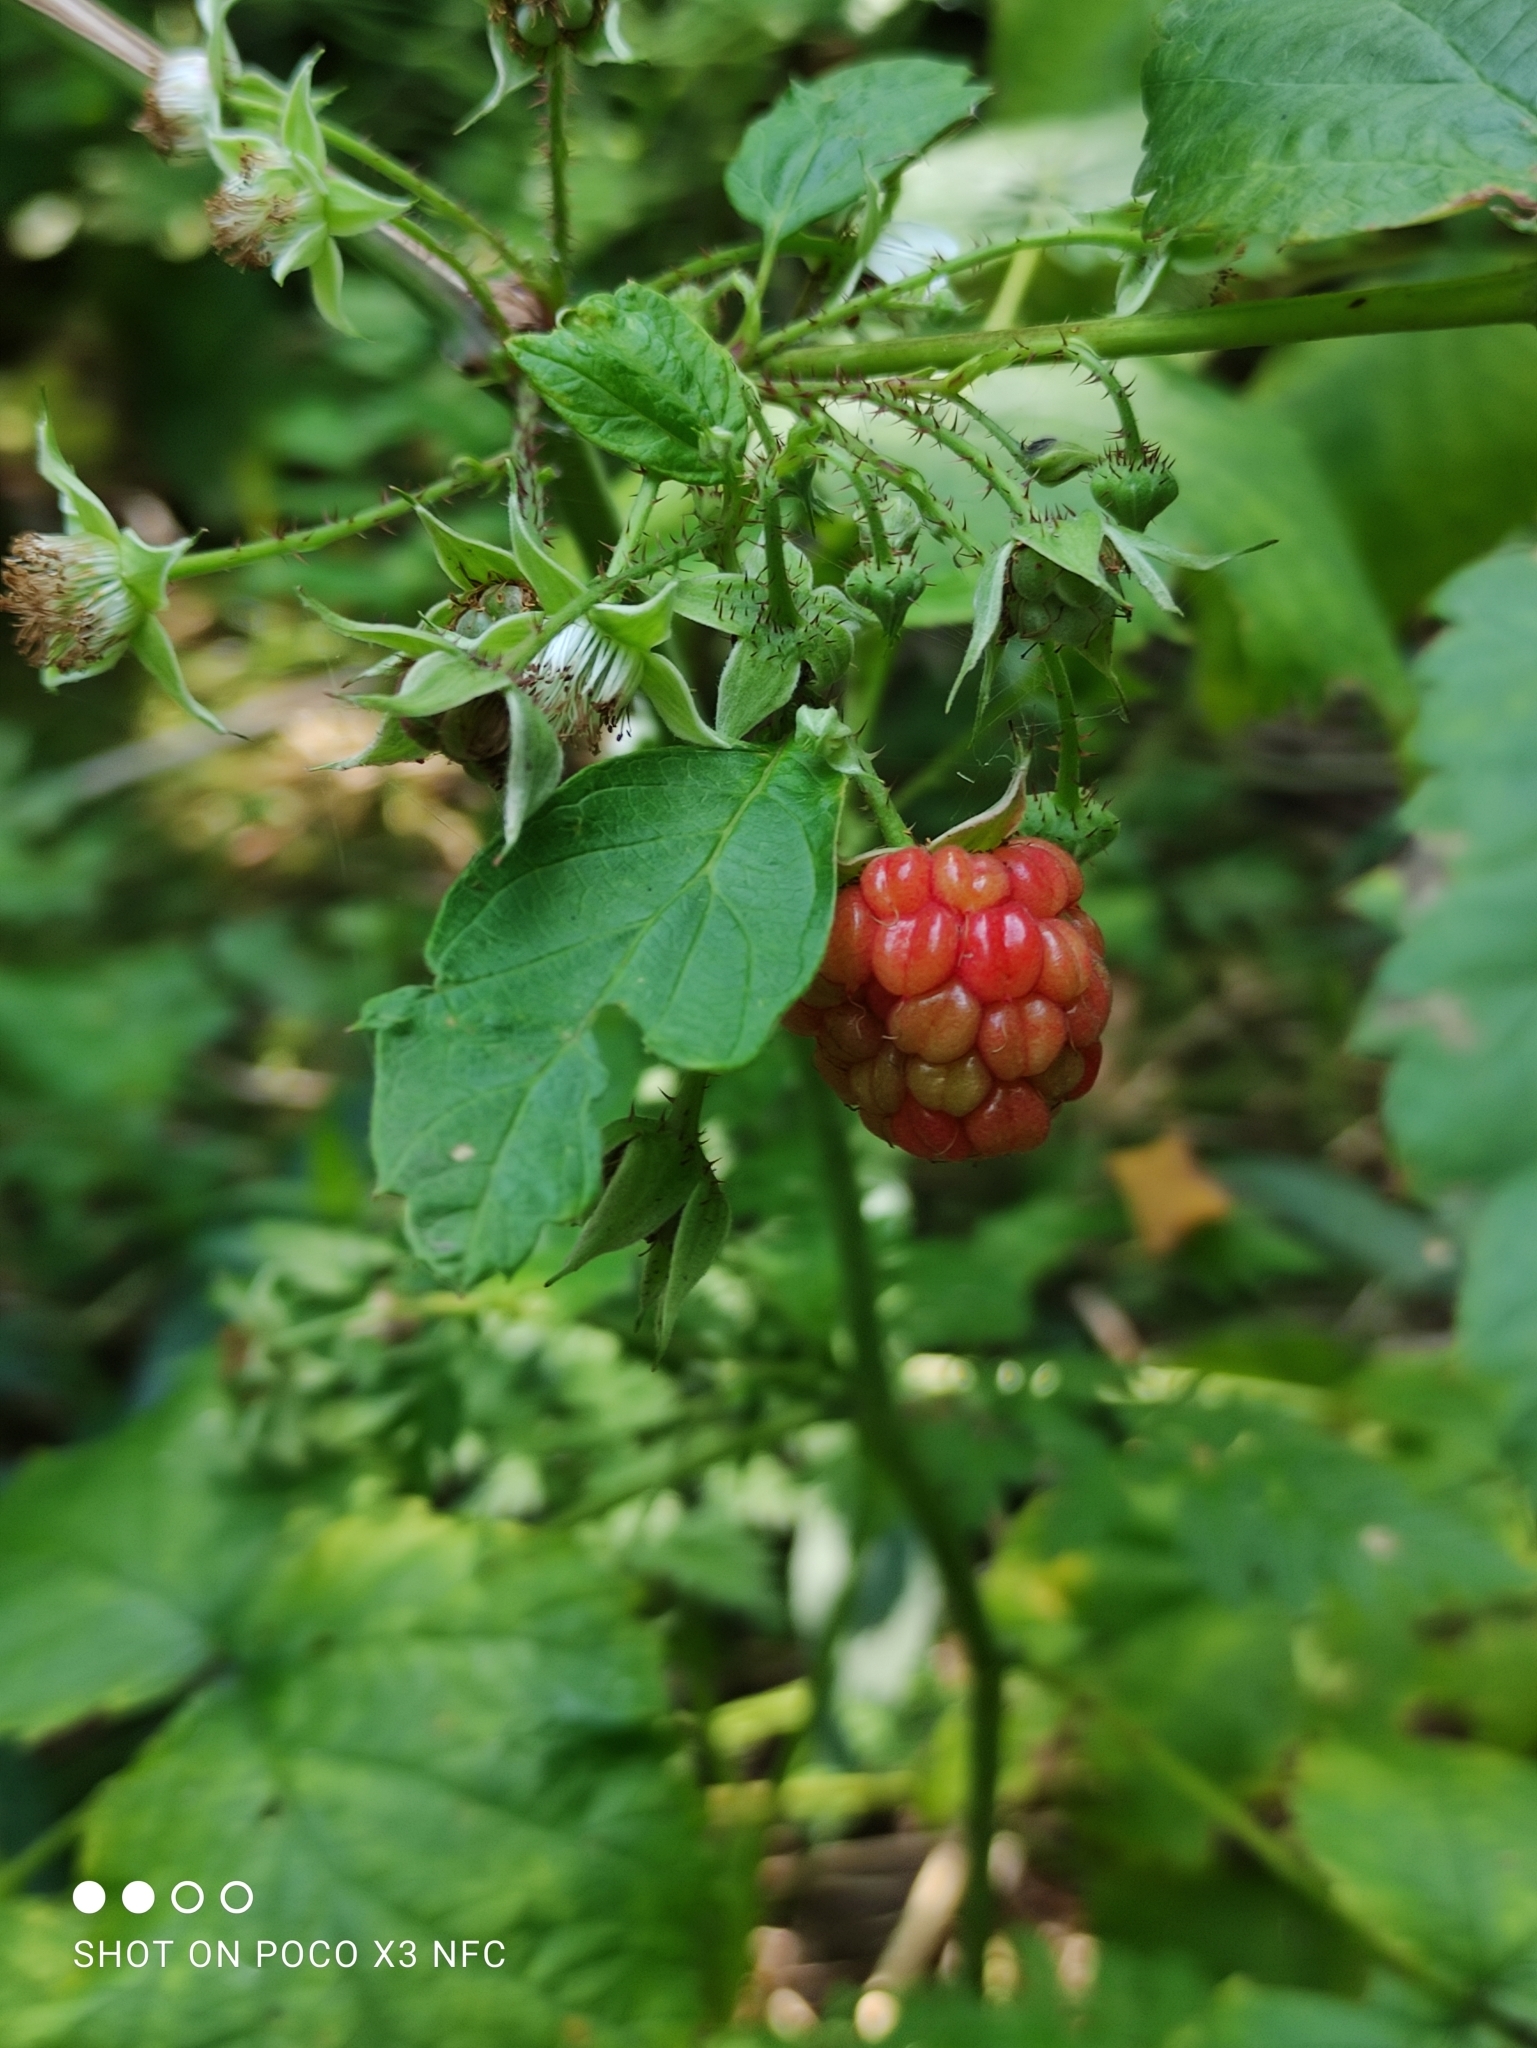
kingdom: Plantae
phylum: Tracheophyta
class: Magnoliopsida
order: Rosales
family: Rosaceae
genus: Rubus
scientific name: Rubus idaeus
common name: Raspberry
